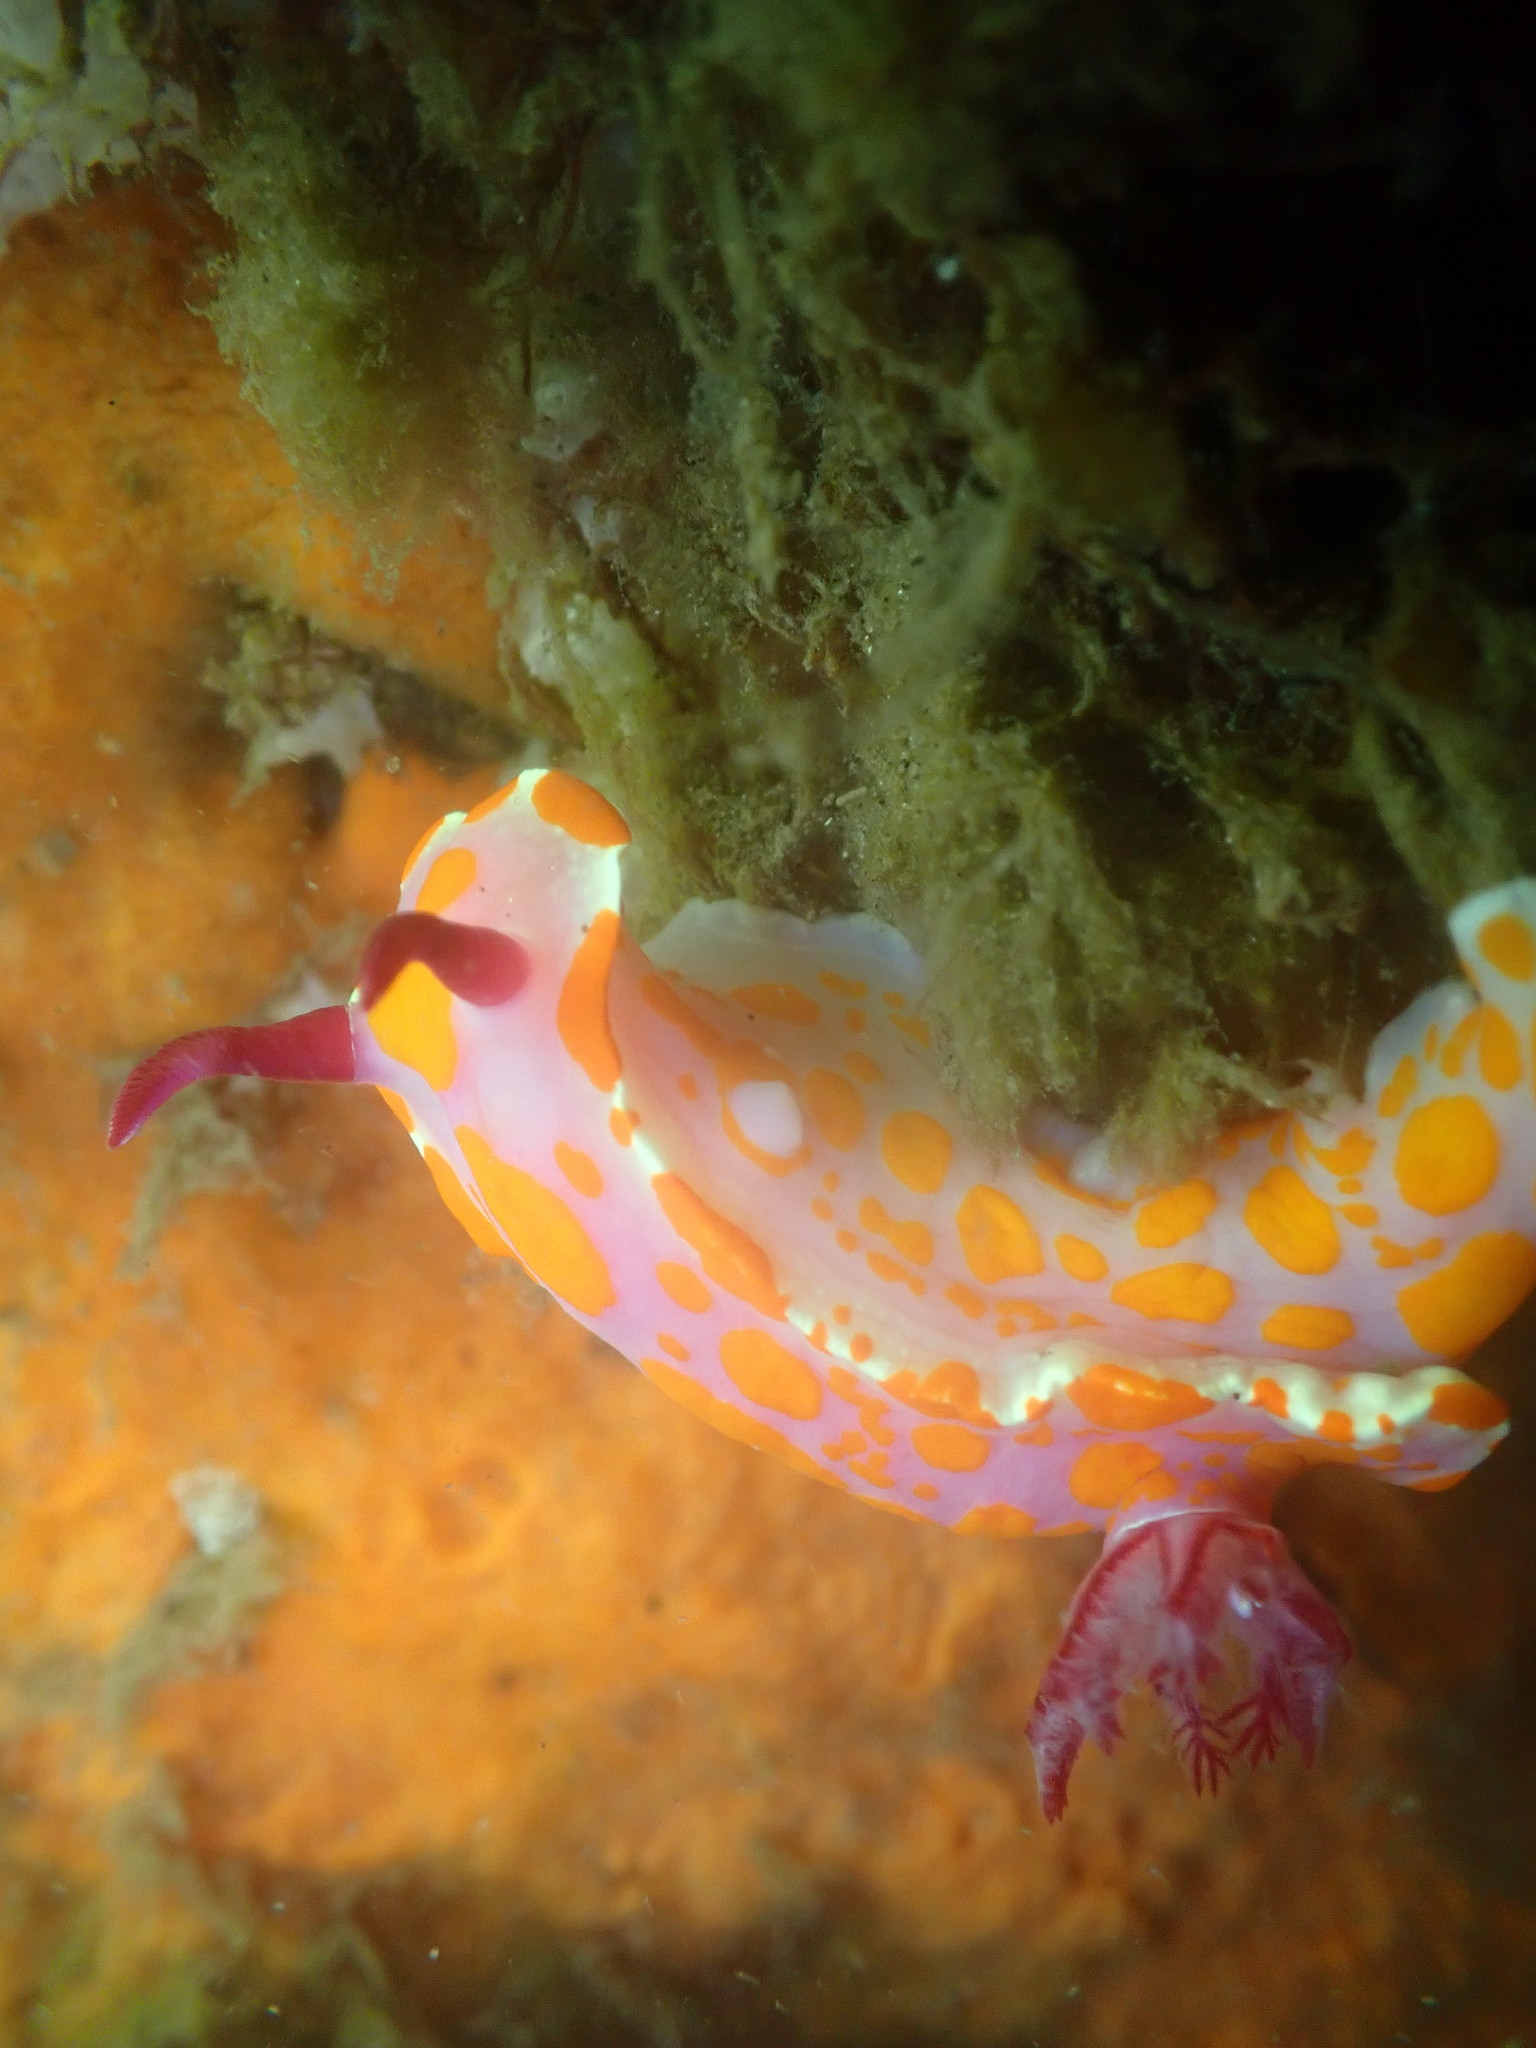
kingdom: Animalia
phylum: Mollusca
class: Gastropoda
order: Nudibranchia
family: Chromodorididae
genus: Ceratosoma
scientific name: Ceratosoma amoenum
